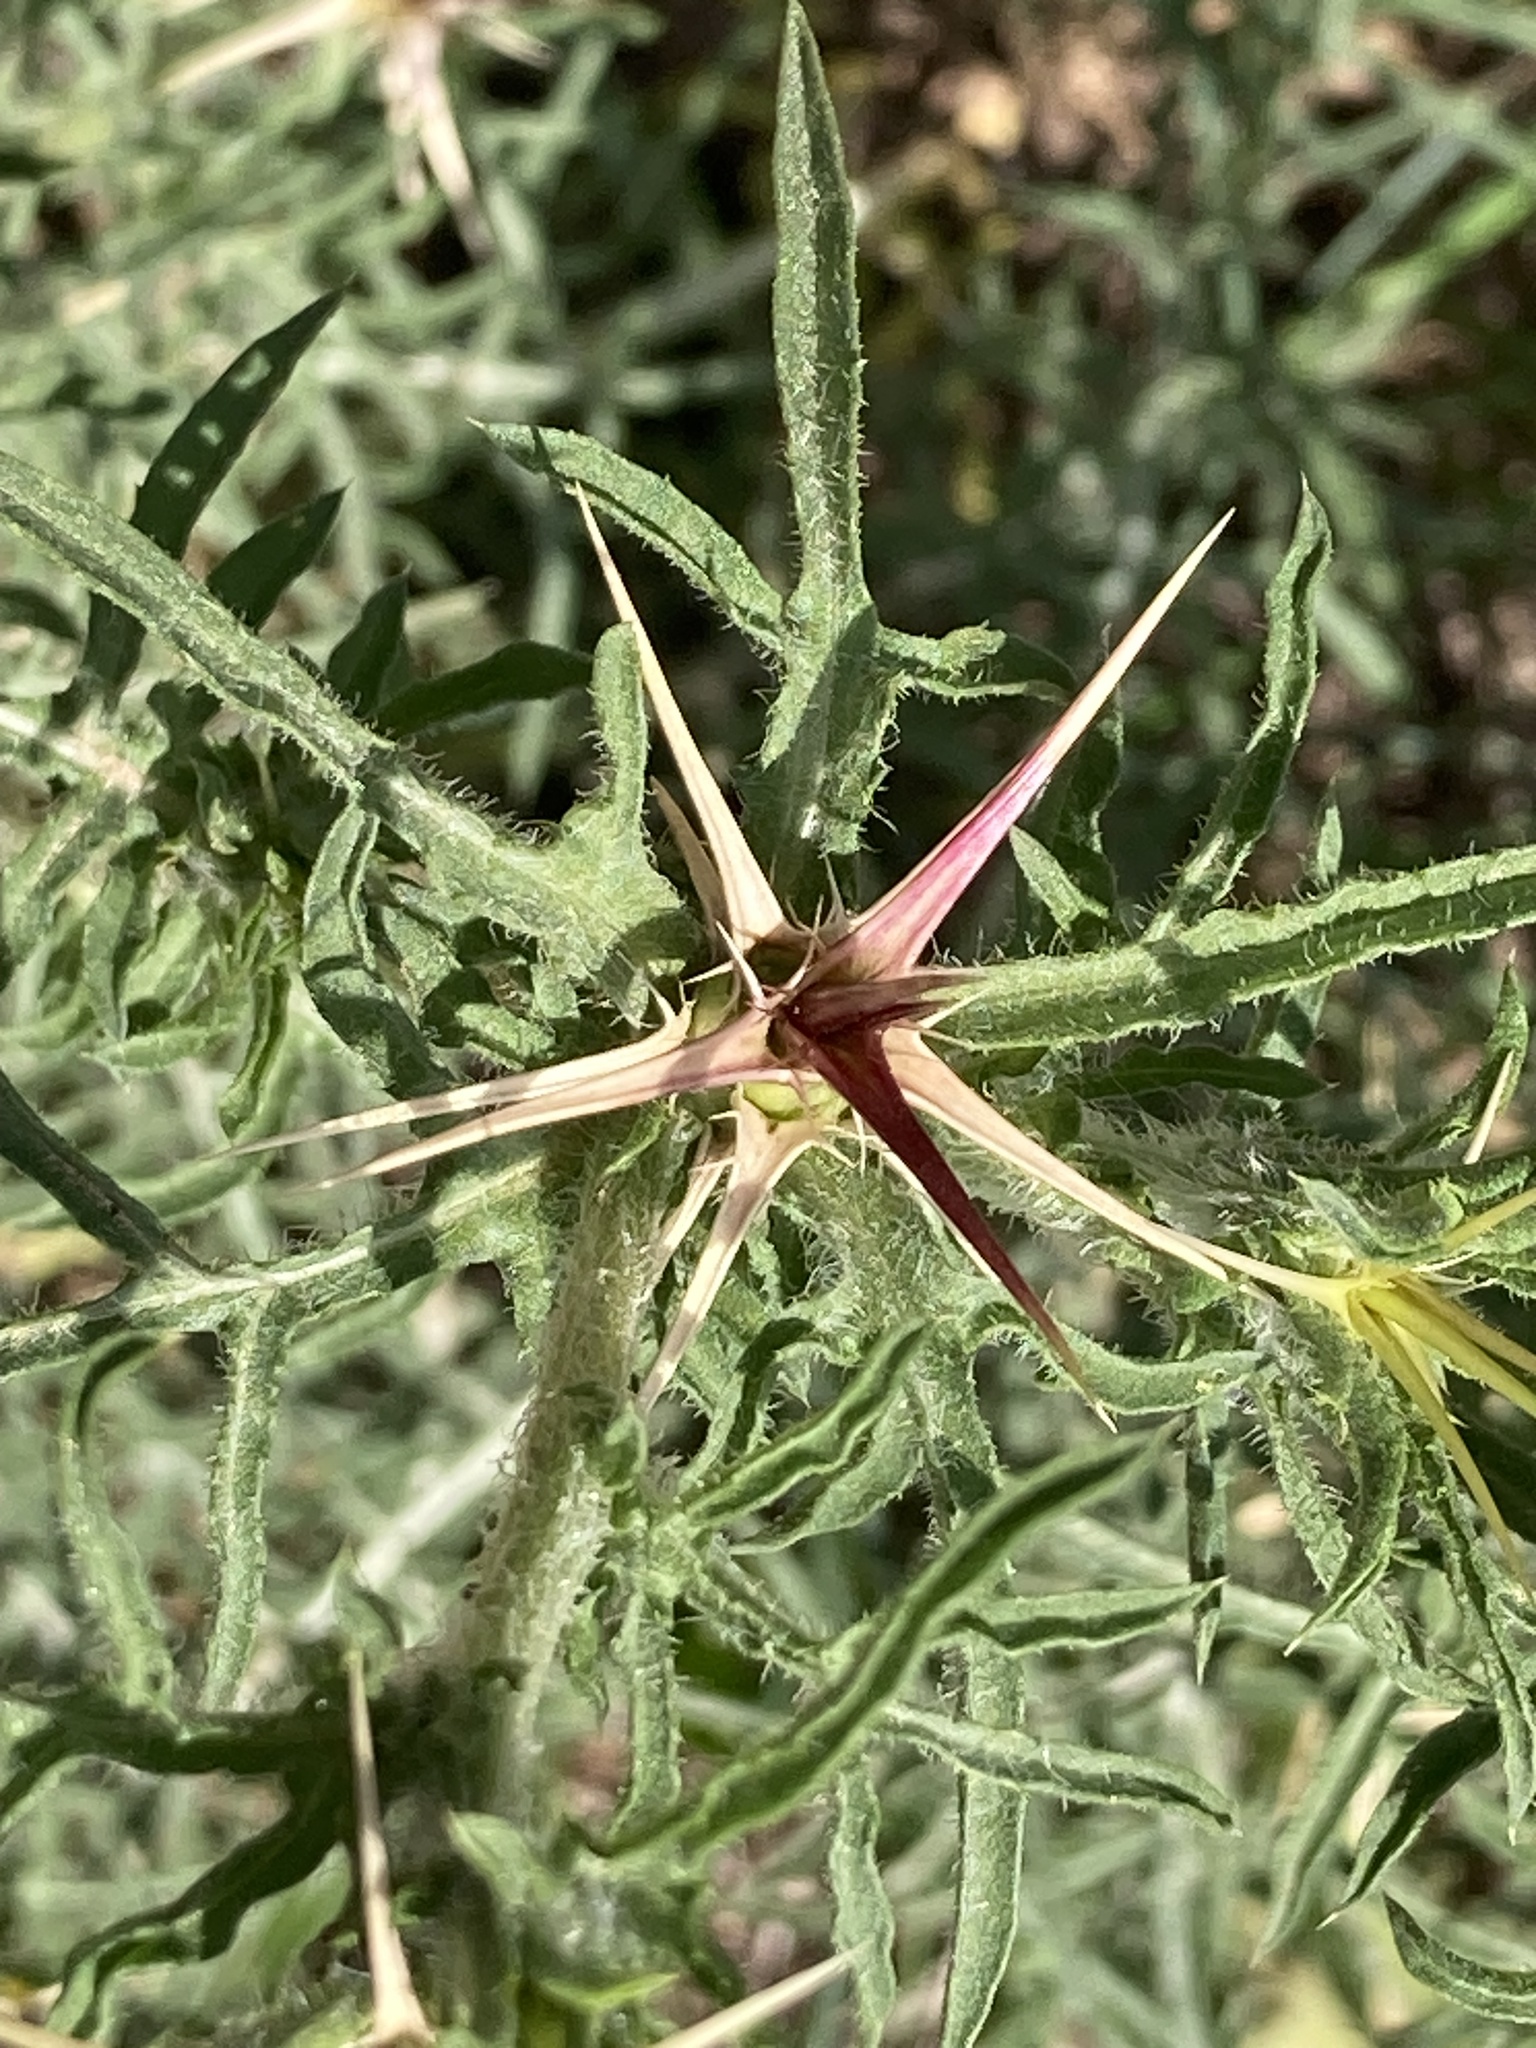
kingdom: Plantae
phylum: Tracheophyta
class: Magnoliopsida
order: Asterales
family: Asteraceae
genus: Centaurea
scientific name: Centaurea calcitrapa
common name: Red star-thistle
